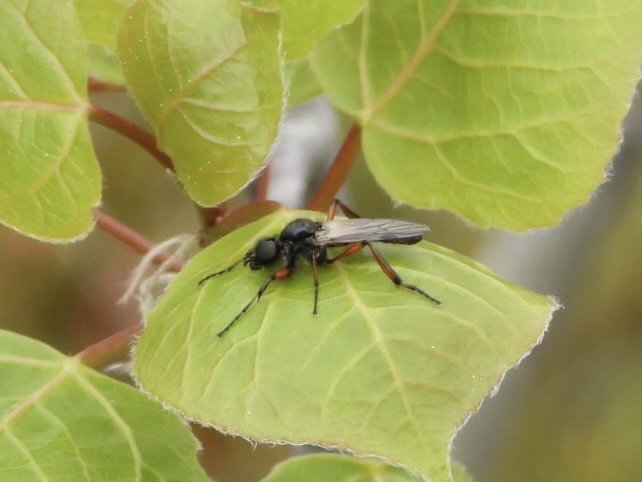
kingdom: Animalia
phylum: Arthropoda
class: Insecta
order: Diptera
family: Bibionidae
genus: Bibio
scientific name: Bibio xanthopus
